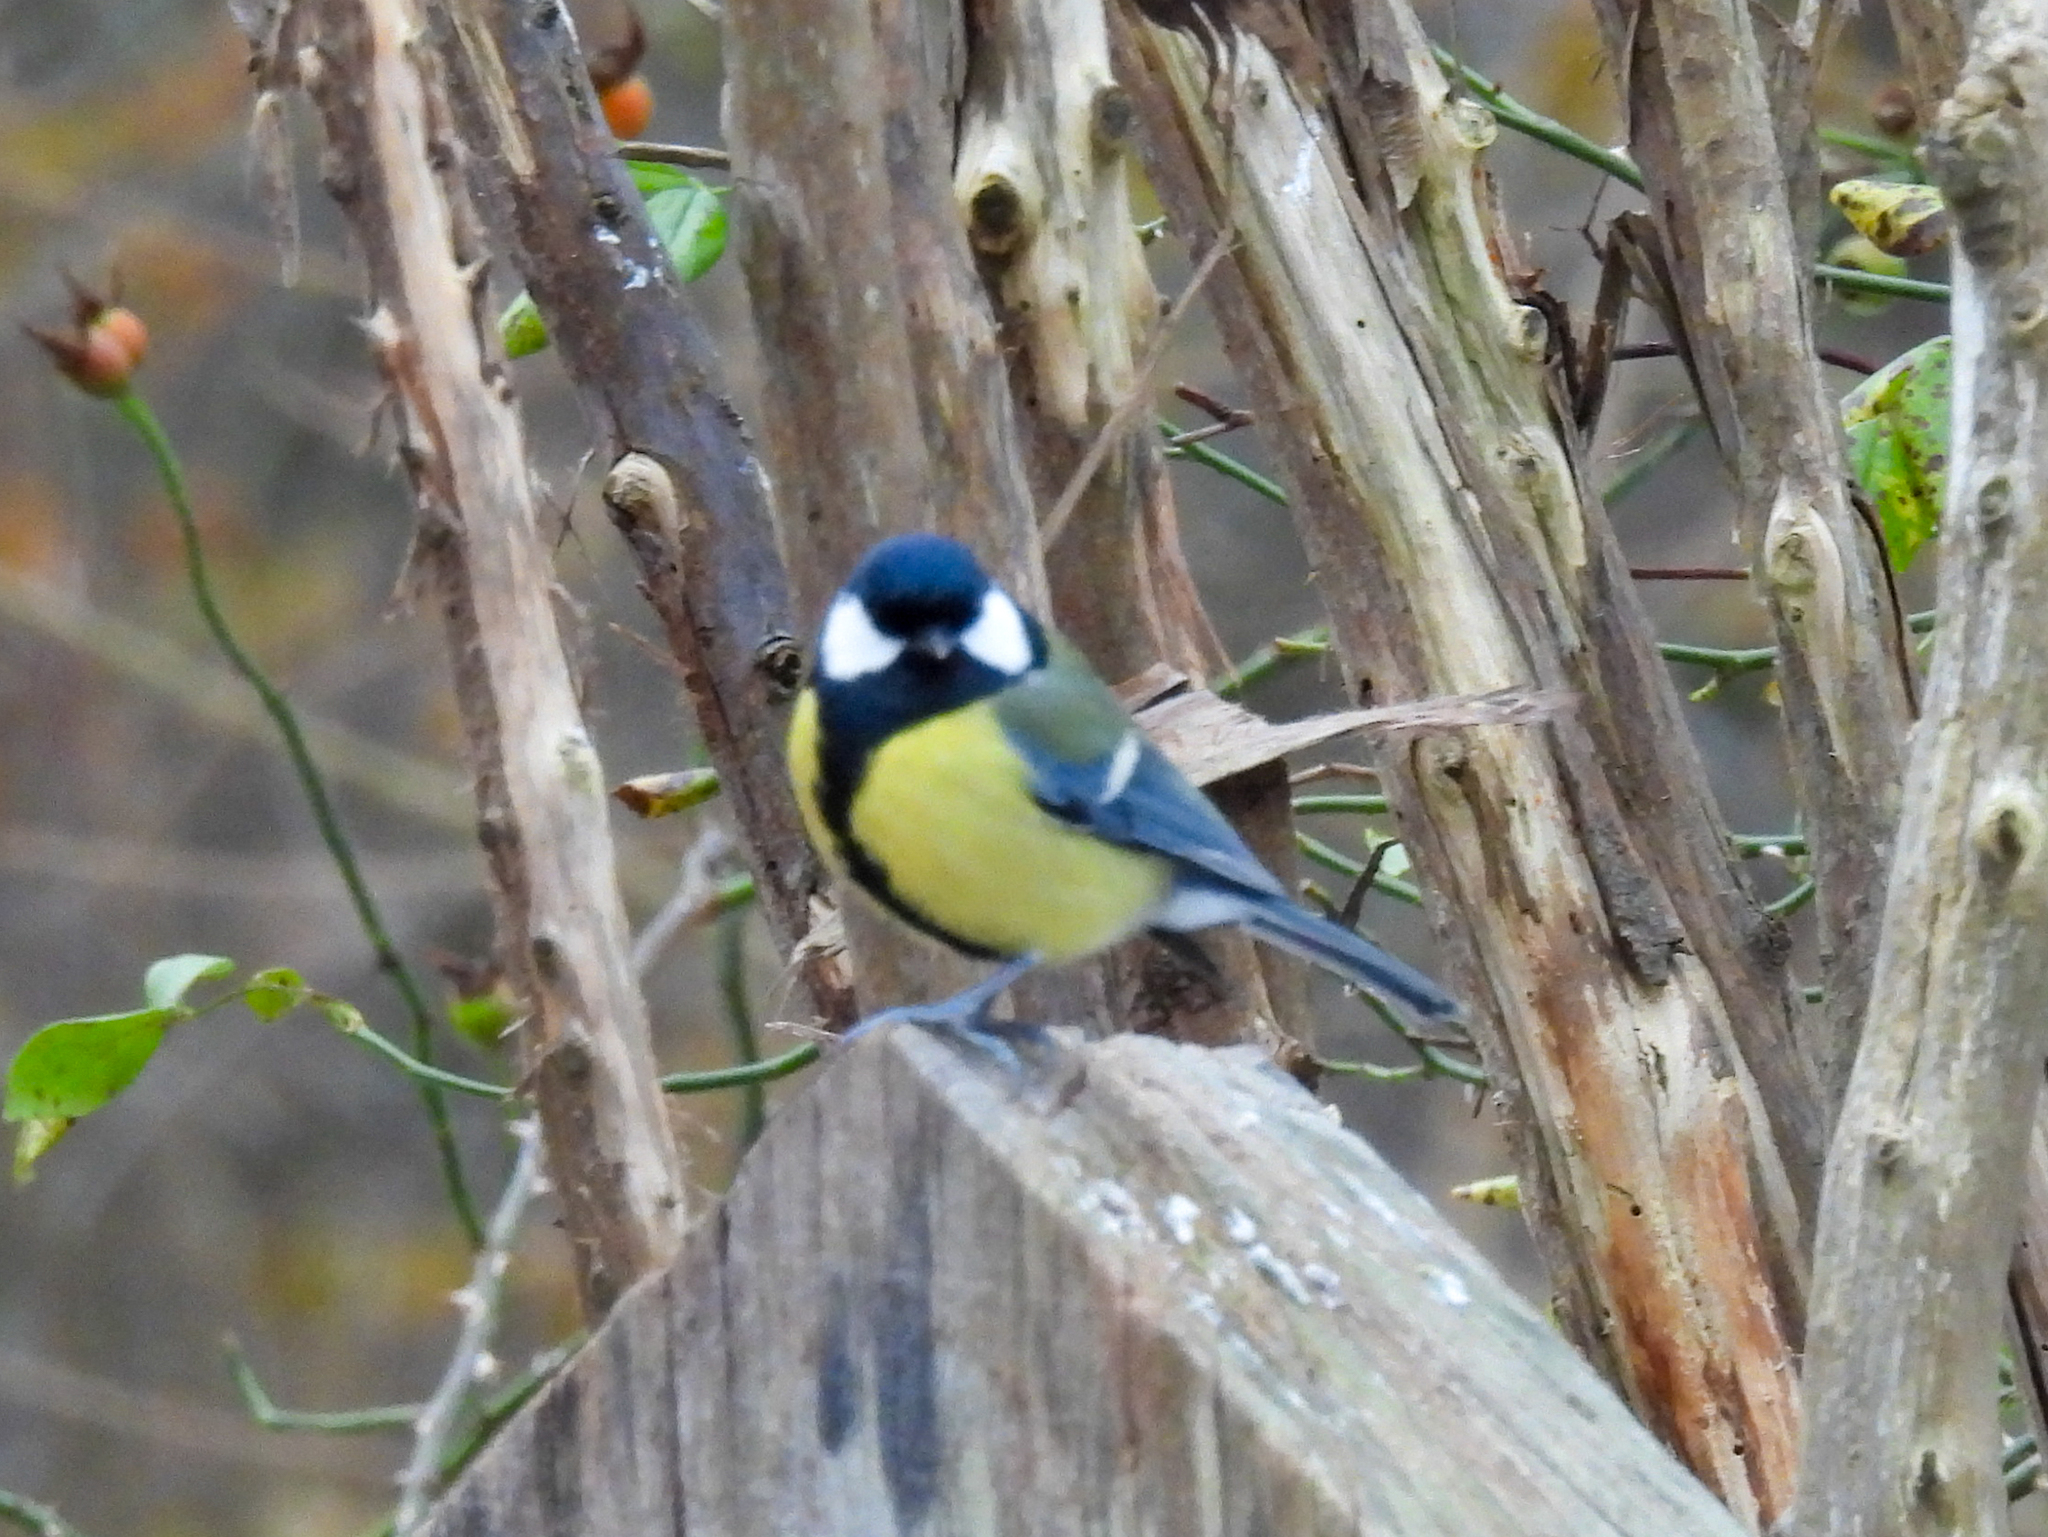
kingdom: Animalia
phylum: Chordata
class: Aves
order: Passeriformes
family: Paridae
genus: Parus
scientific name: Parus major
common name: Great tit
